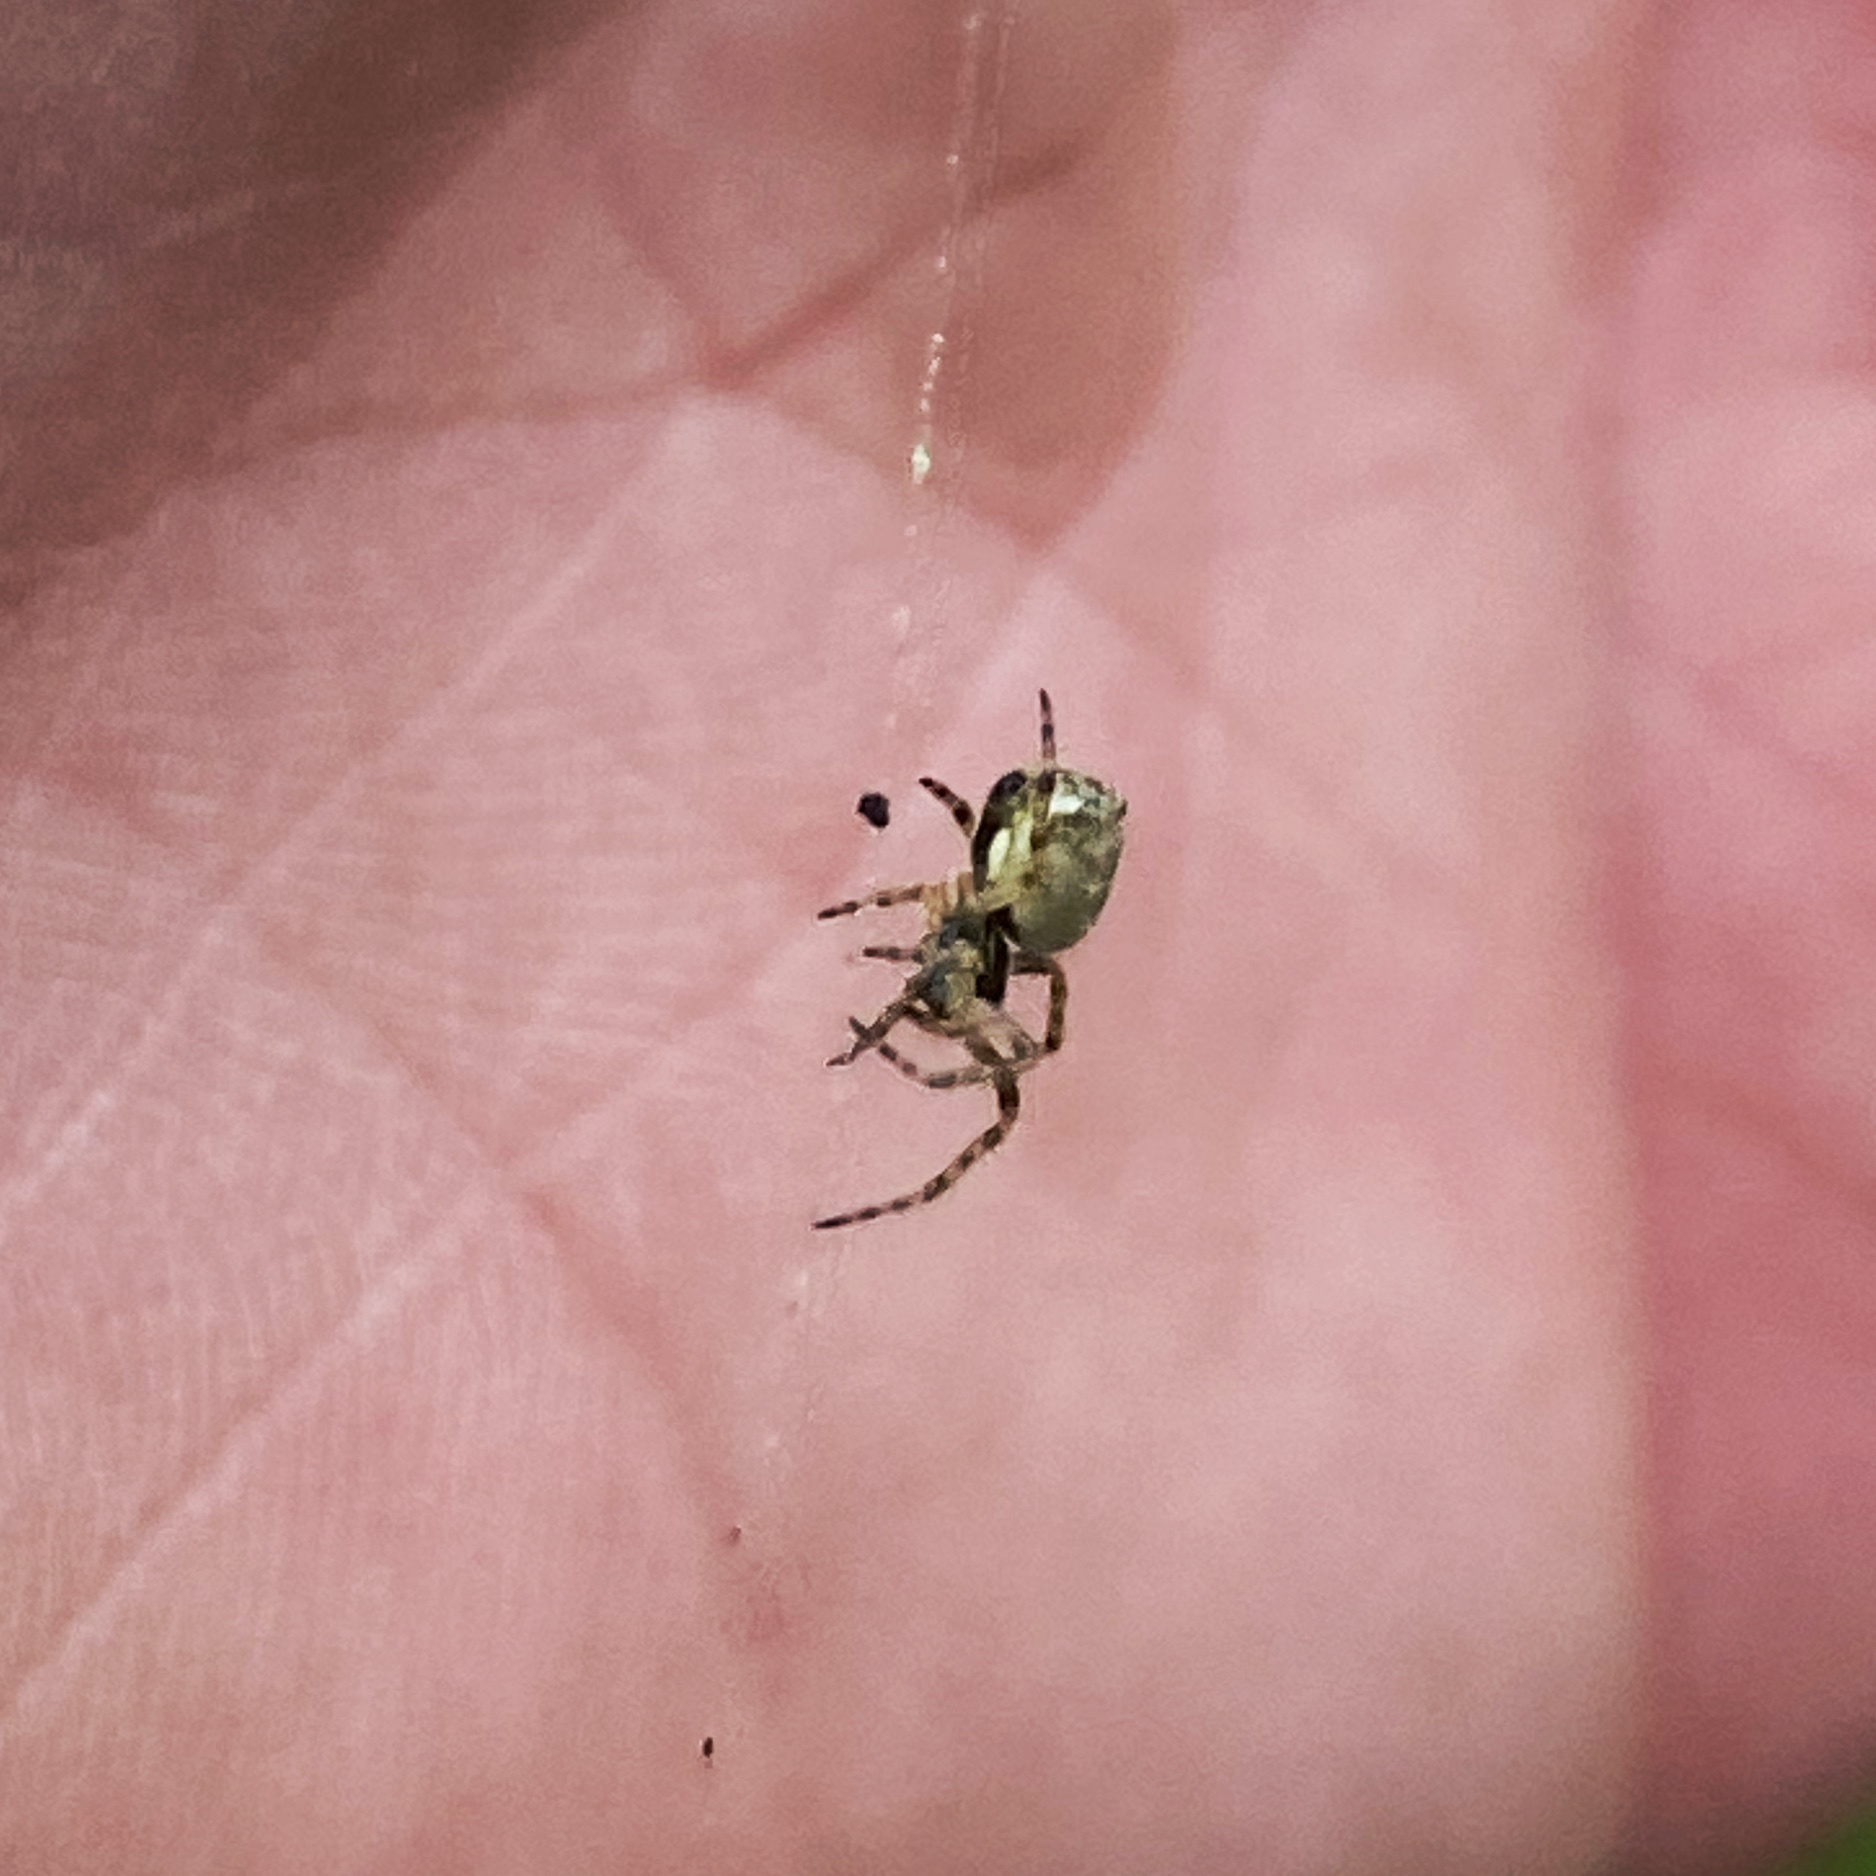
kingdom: Animalia
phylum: Arthropoda
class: Arachnida
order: Araneae
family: Araneidae
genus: Salsa
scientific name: Salsa fuliginata
